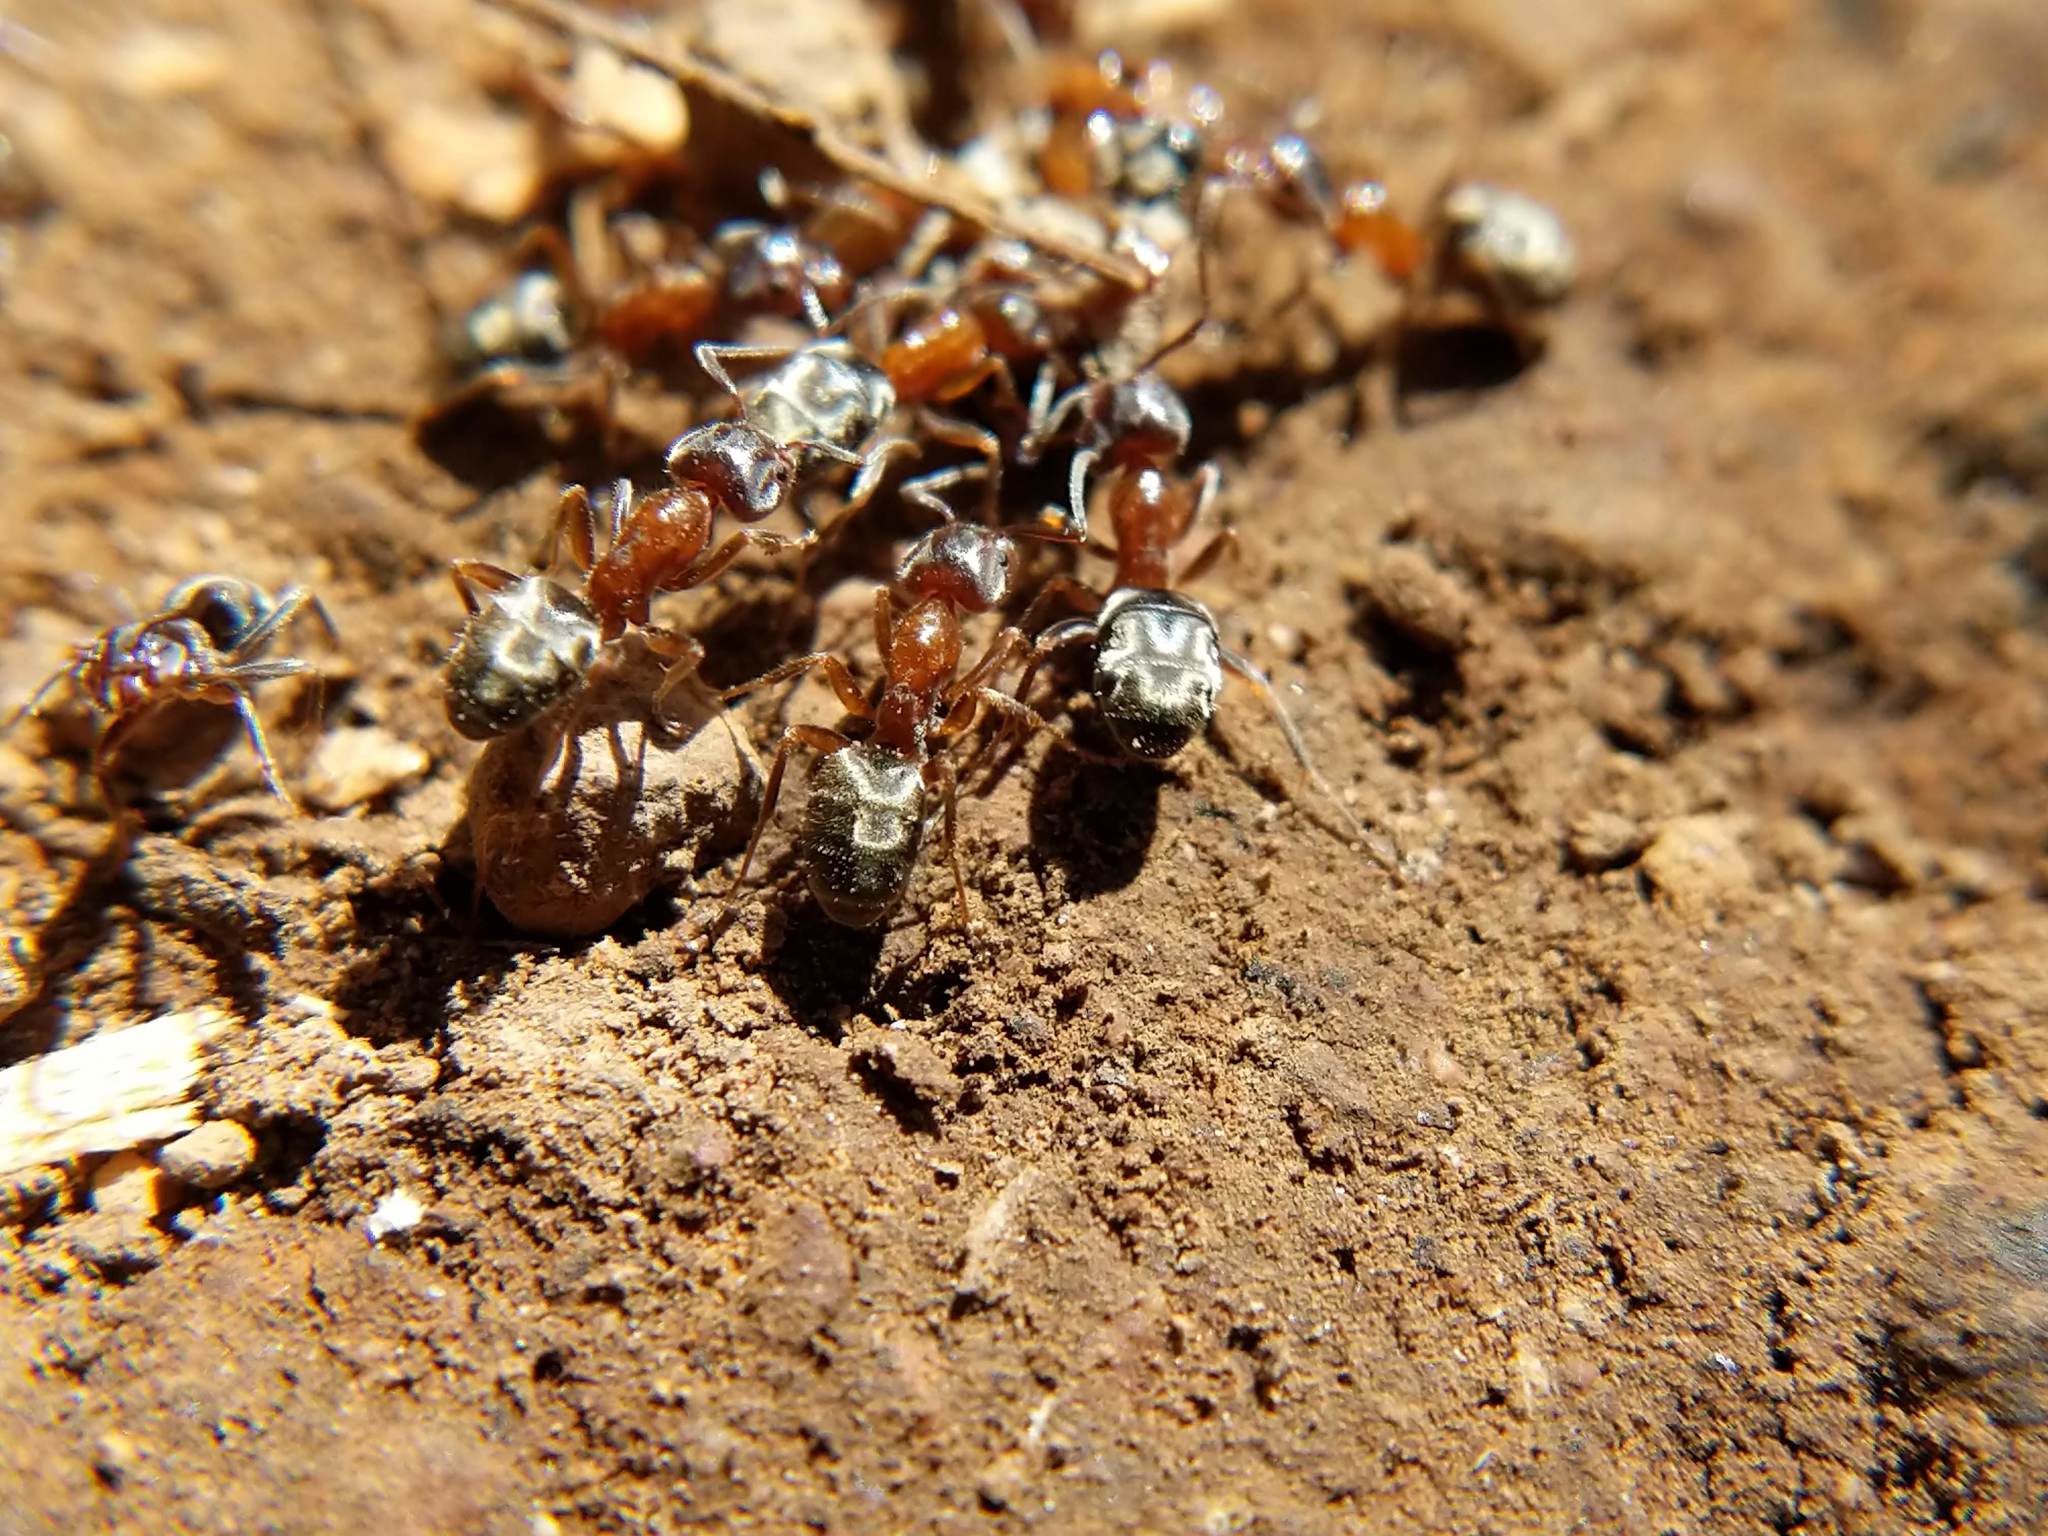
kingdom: Animalia
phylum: Arthropoda
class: Insecta
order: Hymenoptera
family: Formicidae
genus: Liometopum
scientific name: Liometopum occidentale
